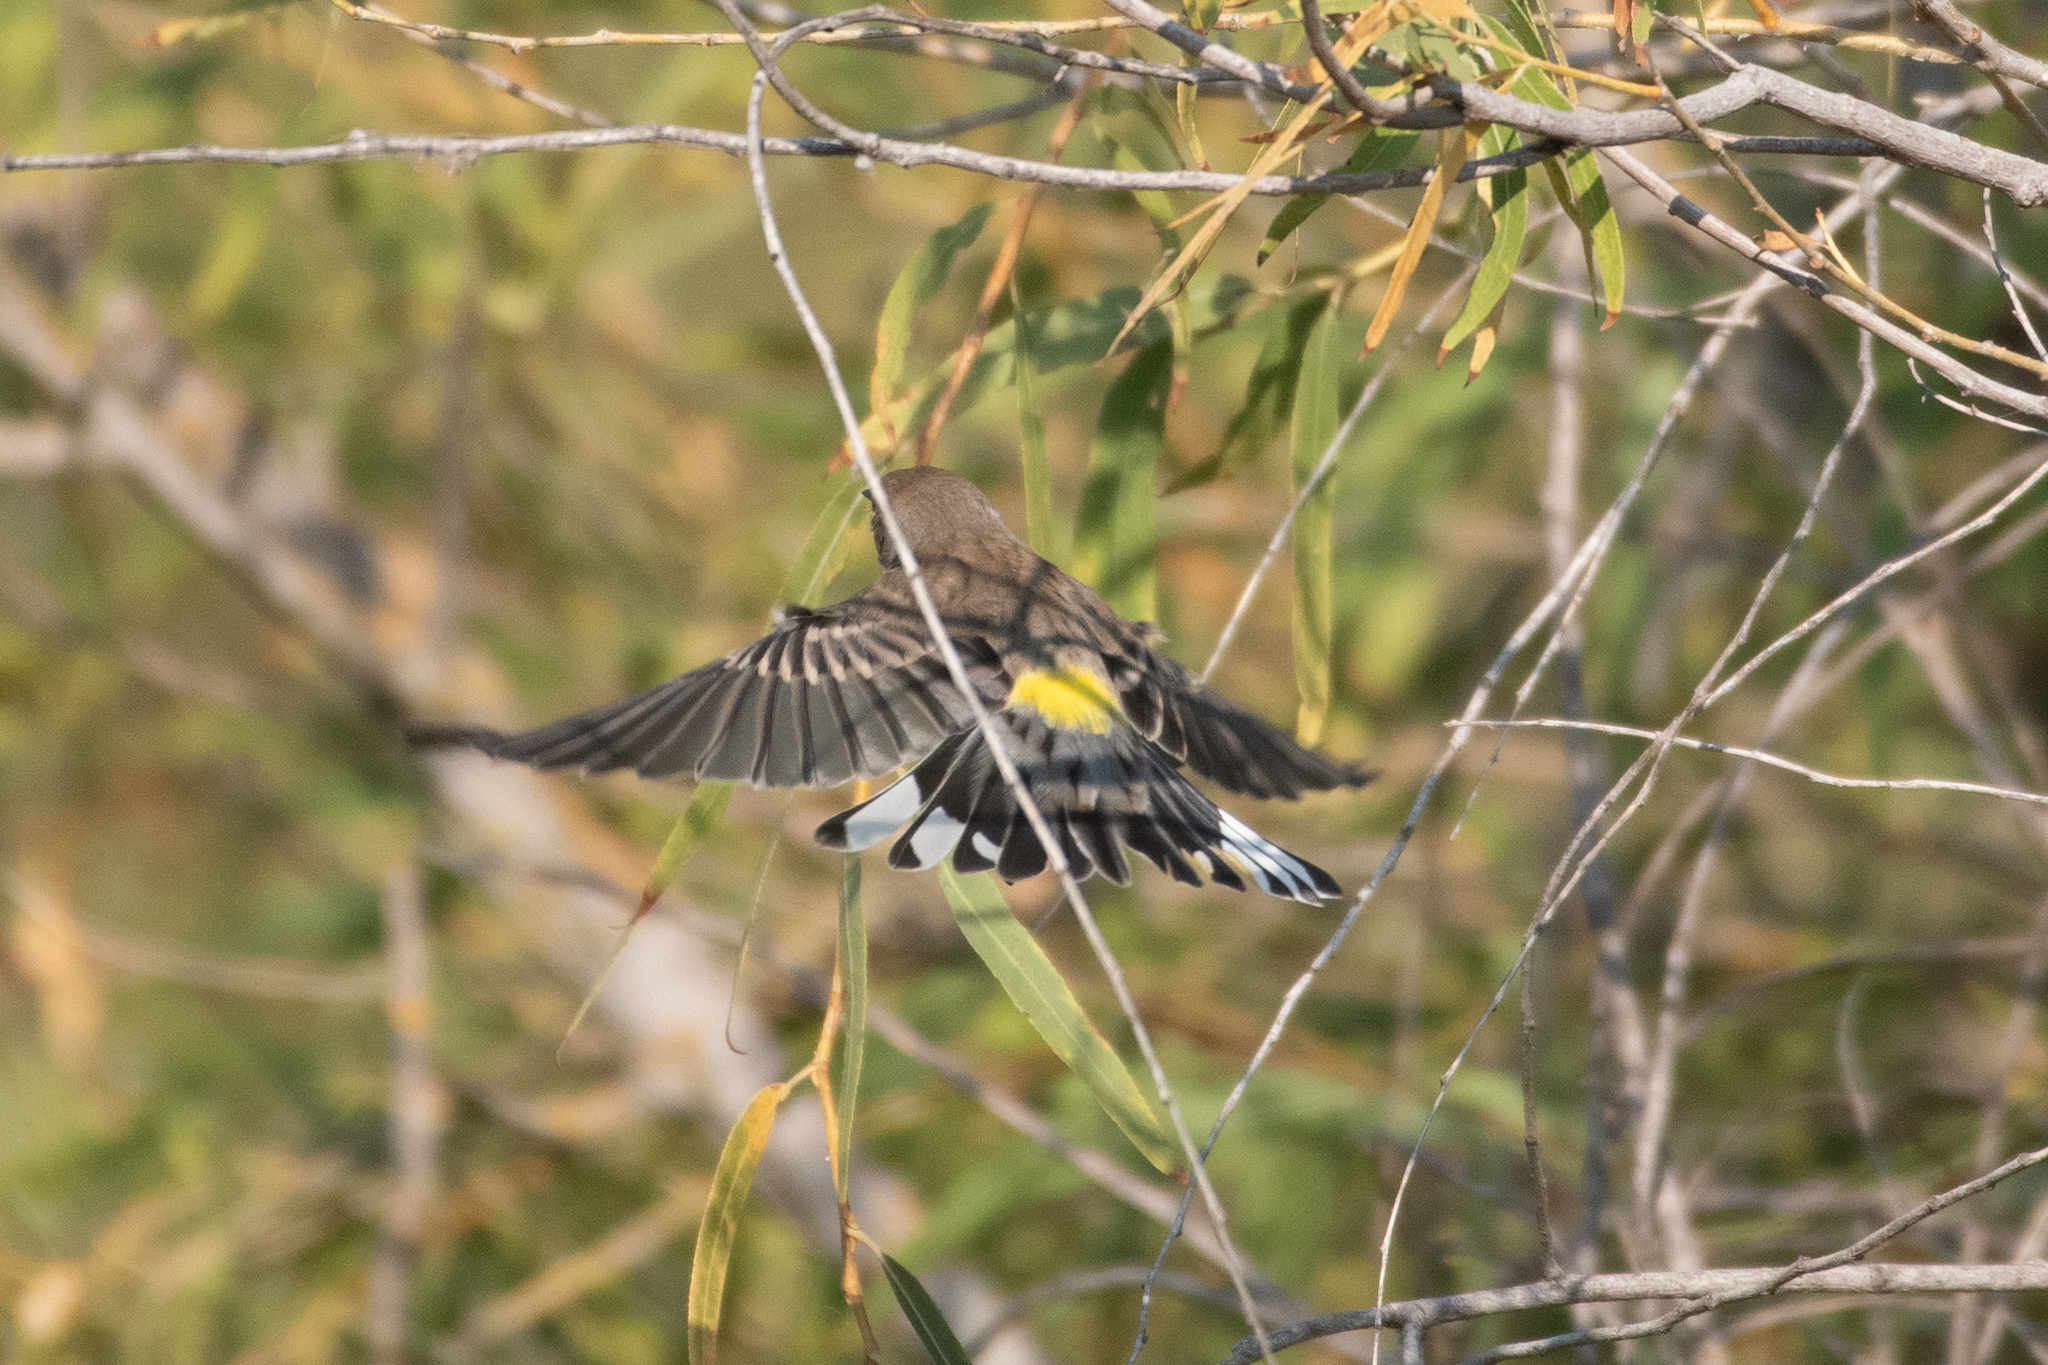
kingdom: Animalia
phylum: Chordata
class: Aves
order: Passeriformes
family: Parulidae
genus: Setophaga
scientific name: Setophaga coronata
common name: Myrtle warbler
